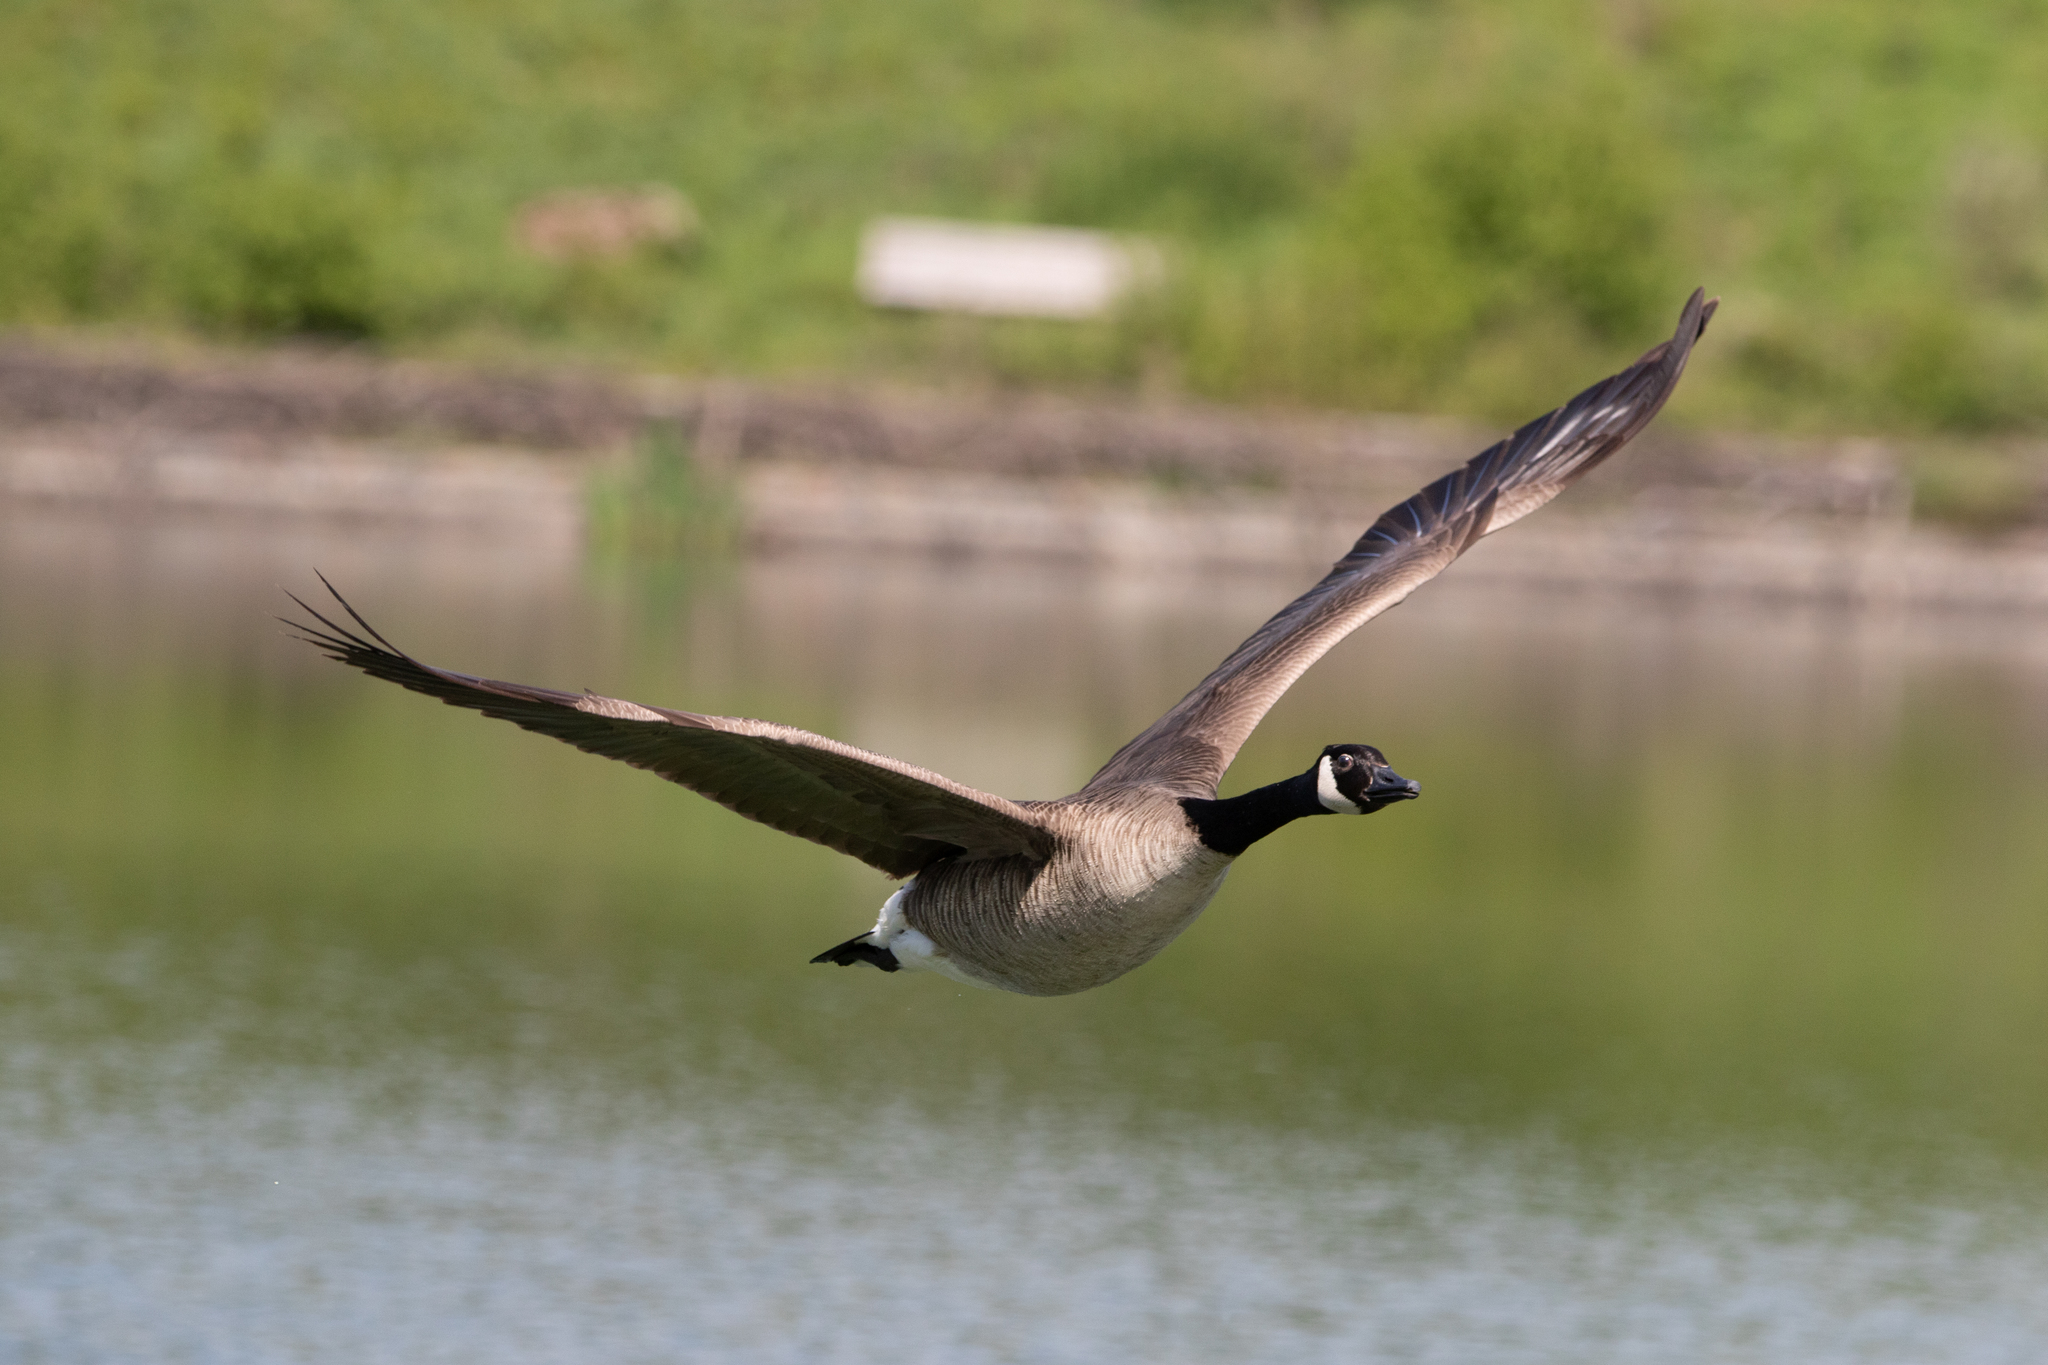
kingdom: Animalia
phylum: Chordata
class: Aves
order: Anseriformes
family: Anatidae
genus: Branta
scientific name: Branta canadensis
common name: Canada goose
